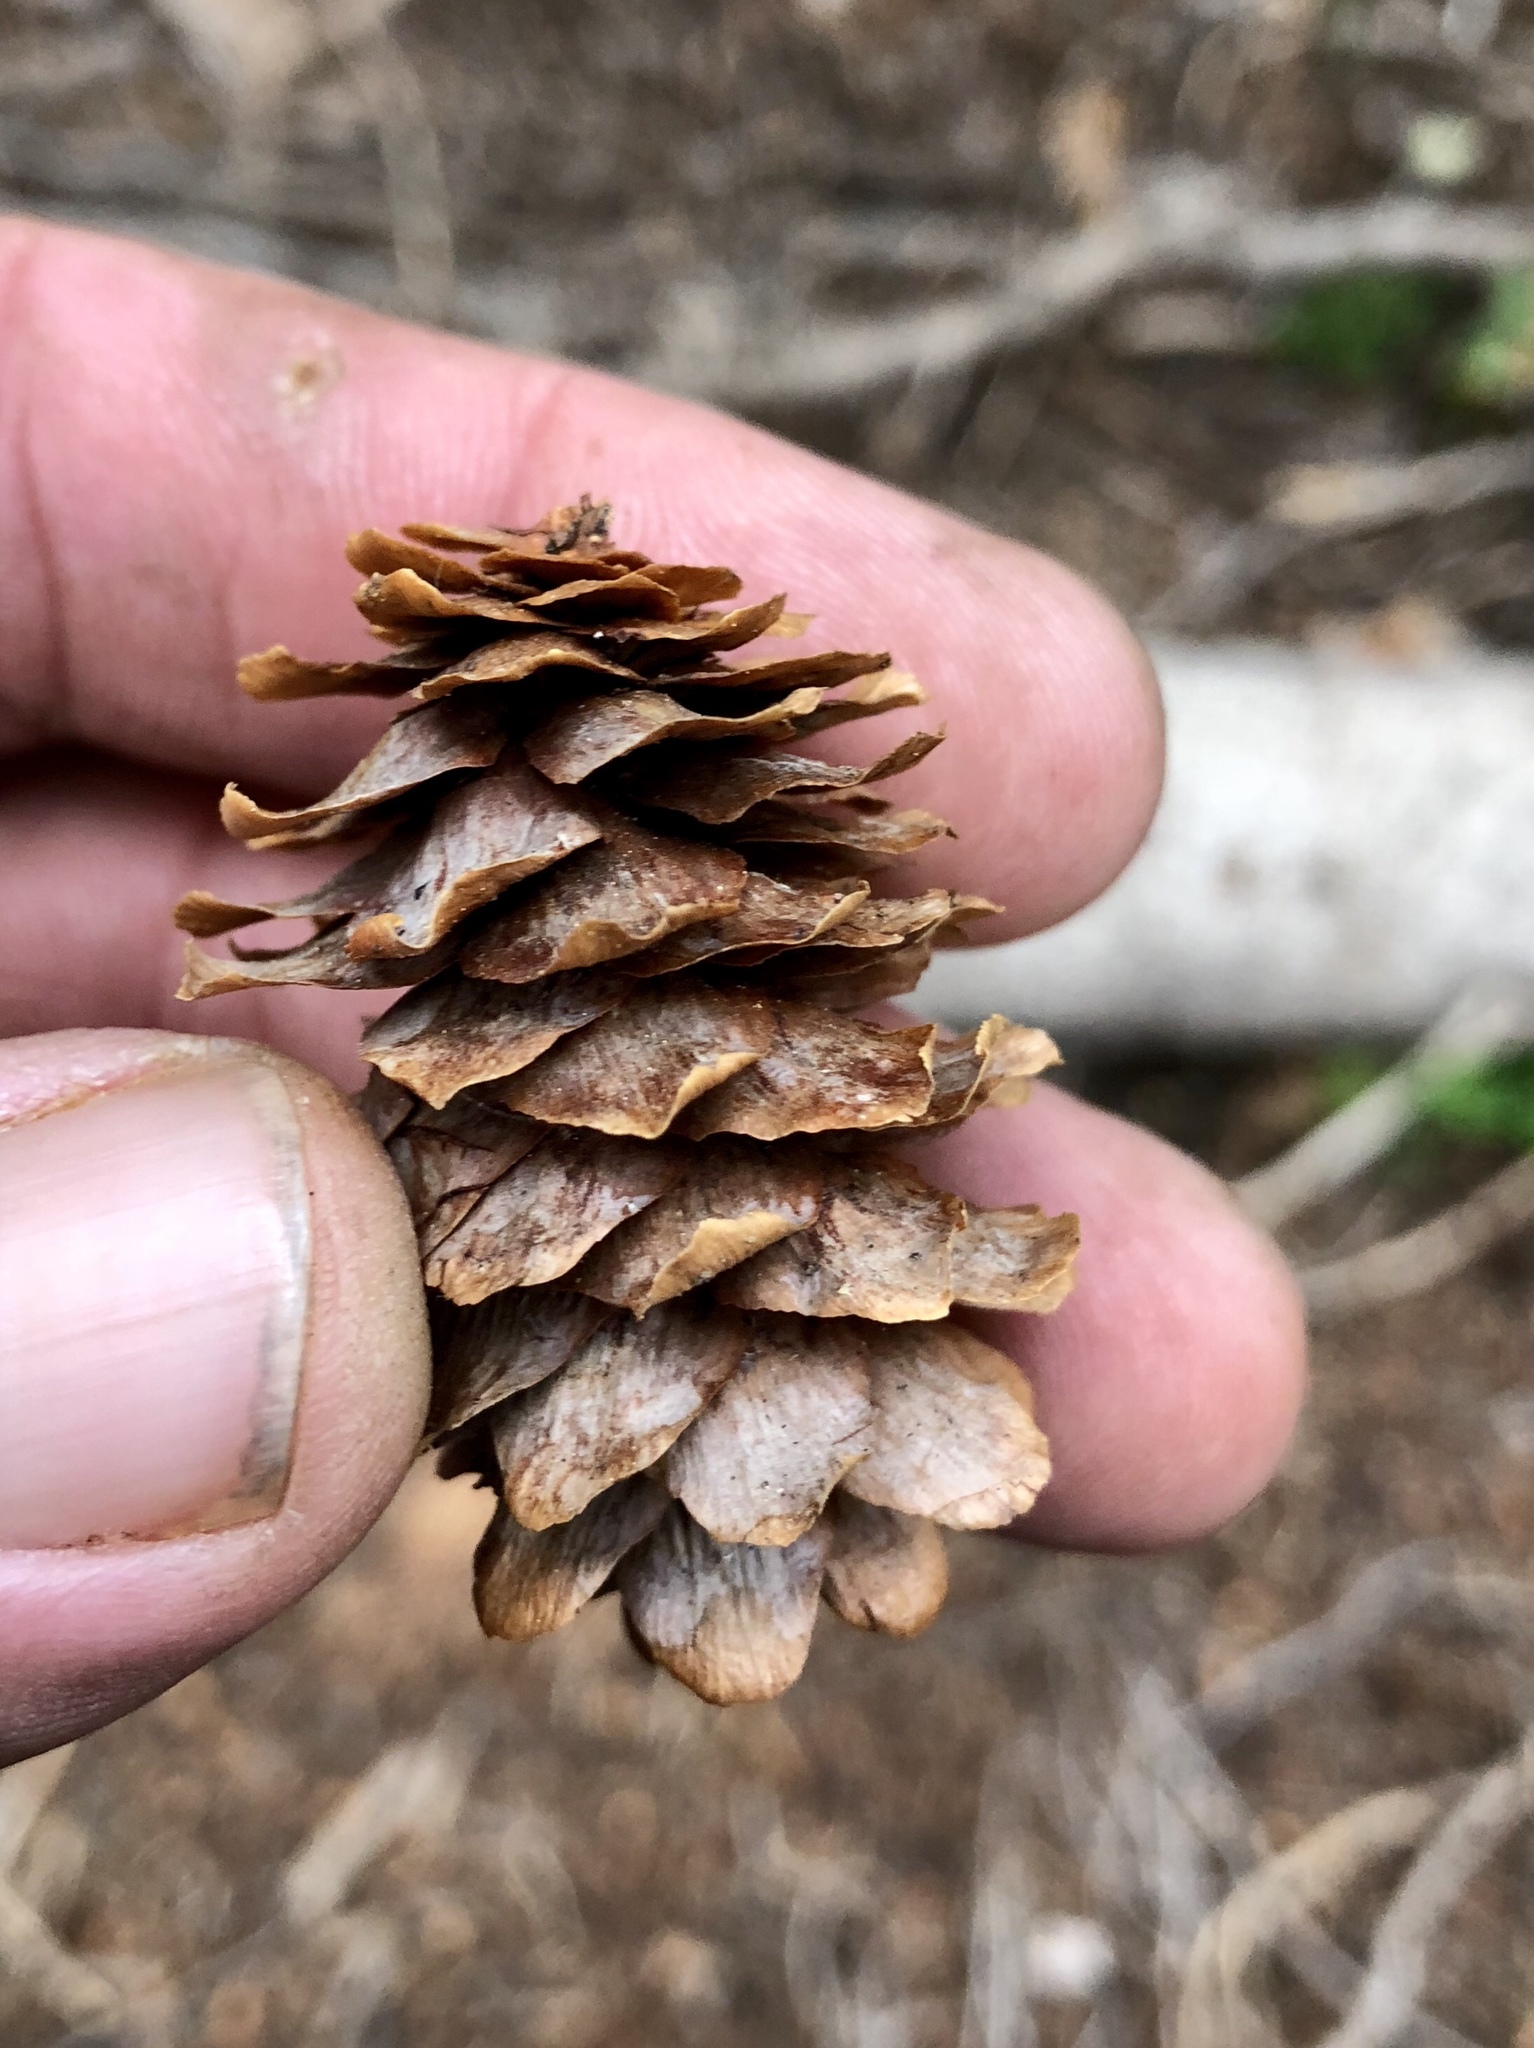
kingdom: Plantae
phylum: Tracheophyta
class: Pinopsida
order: Pinales
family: Pinaceae
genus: Picea
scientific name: Picea engelmannii
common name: Engelmann spruce
